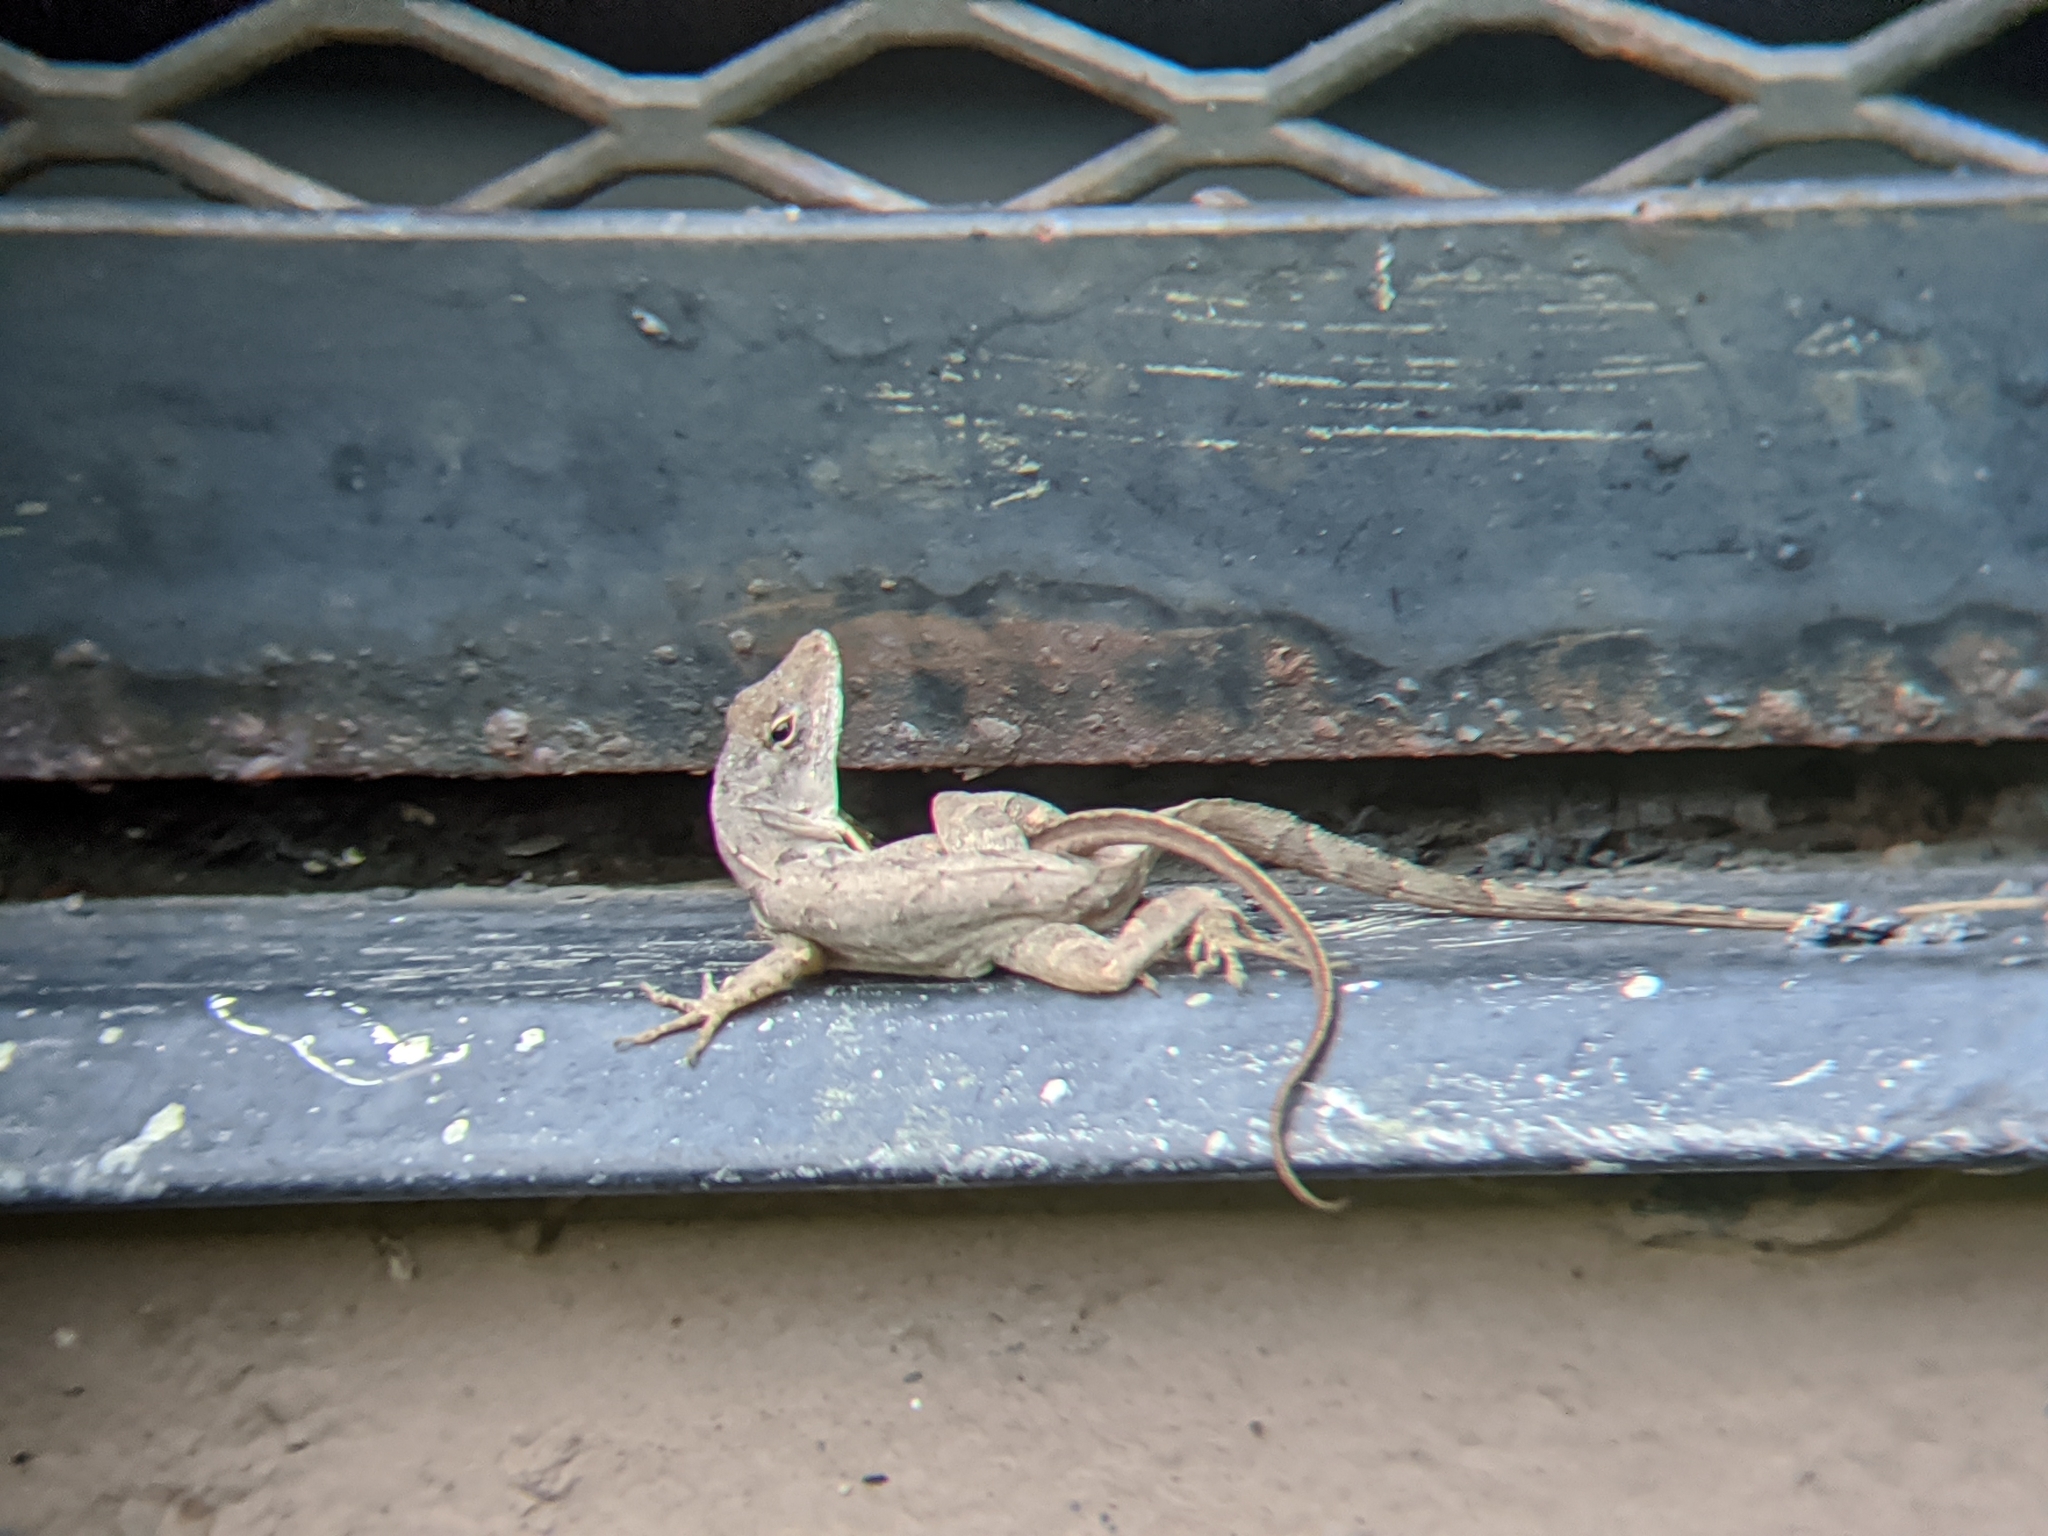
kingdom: Animalia
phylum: Chordata
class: Squamata
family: Dactyloidae
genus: Anolis
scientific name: Anolis sagrei
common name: Brown anole
